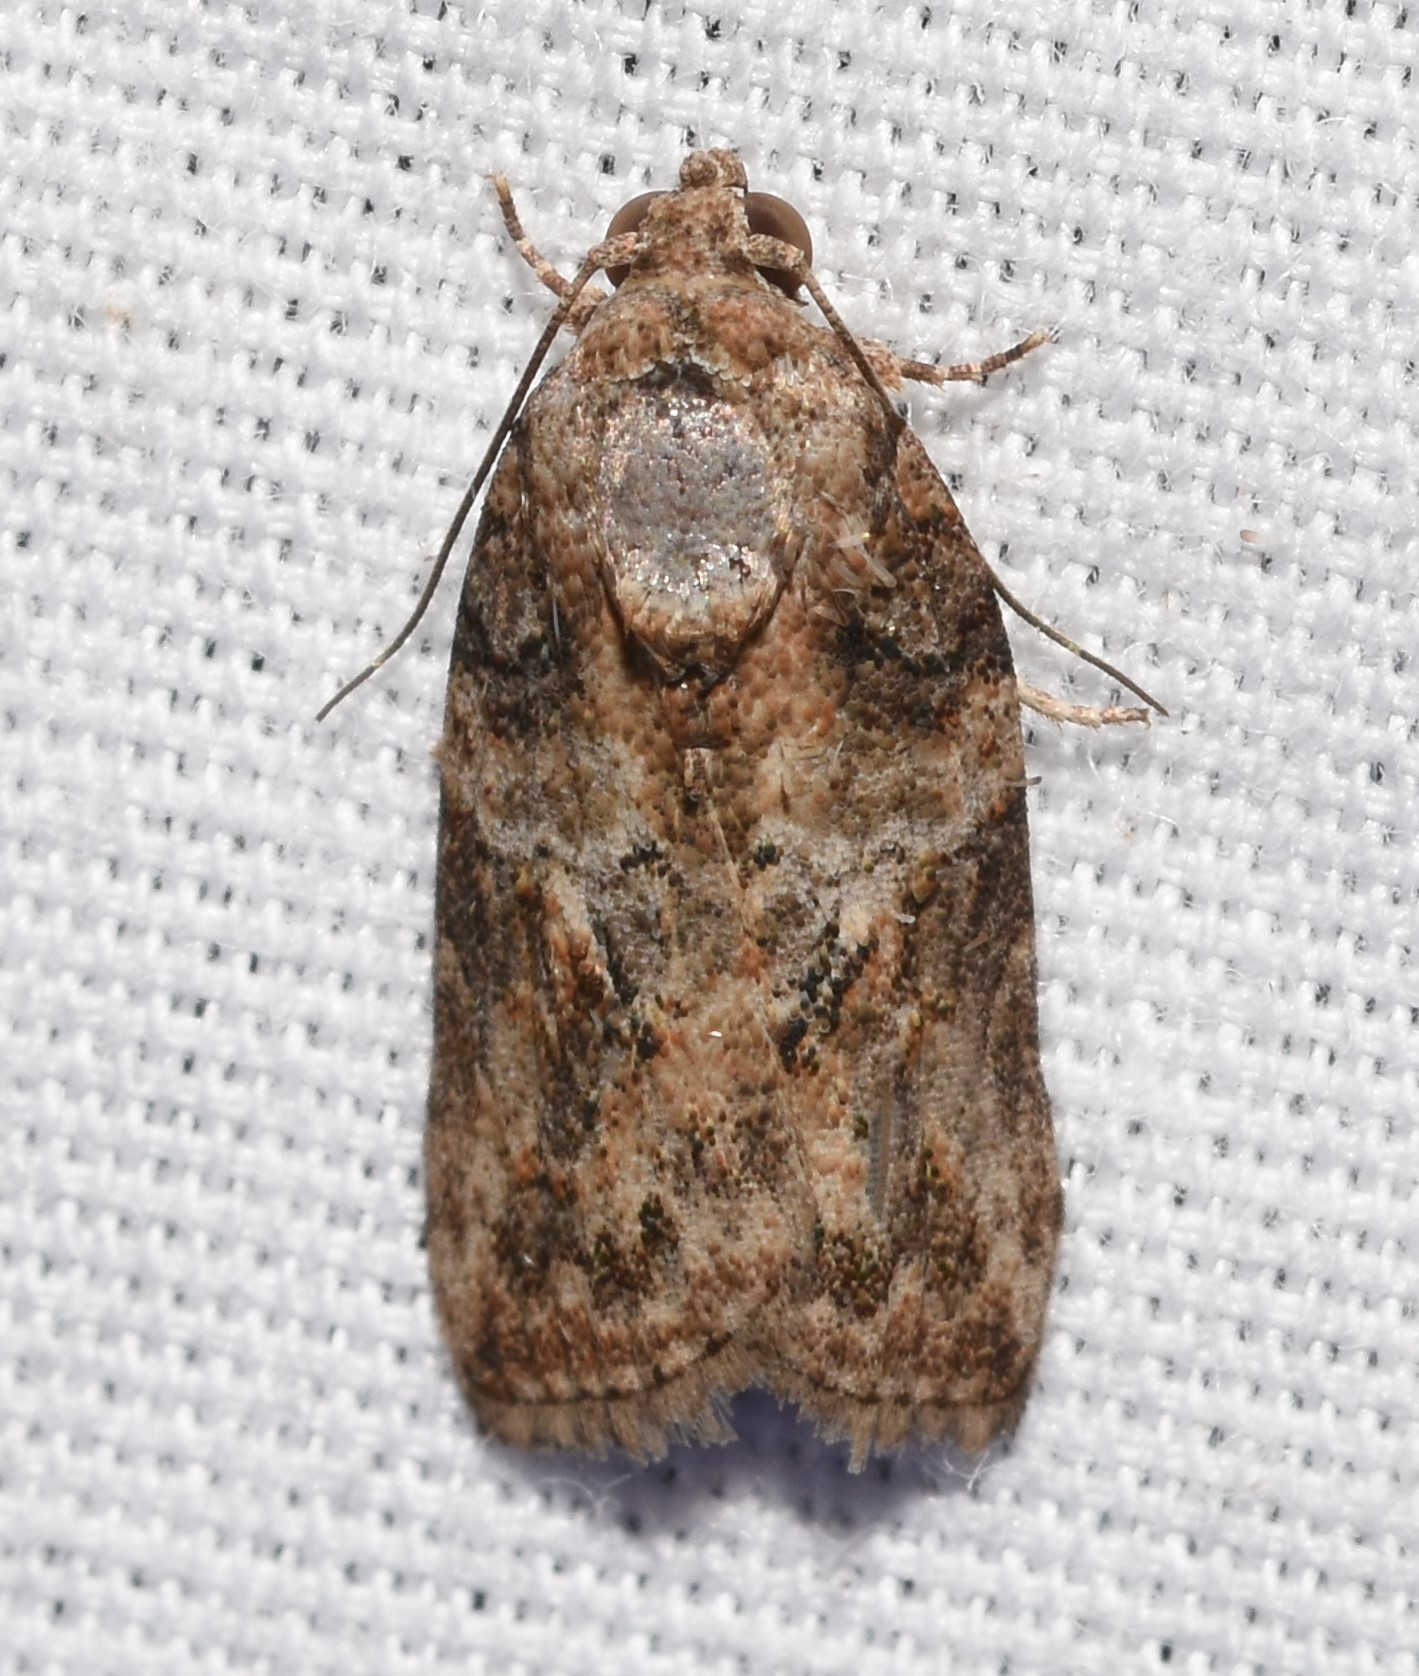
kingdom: Animalia
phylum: Arthropoda
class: Insecta
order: Lepidoptera
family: Nolidae
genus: Garella
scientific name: Garella nilotica
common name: Black-olive caterpillar moth
